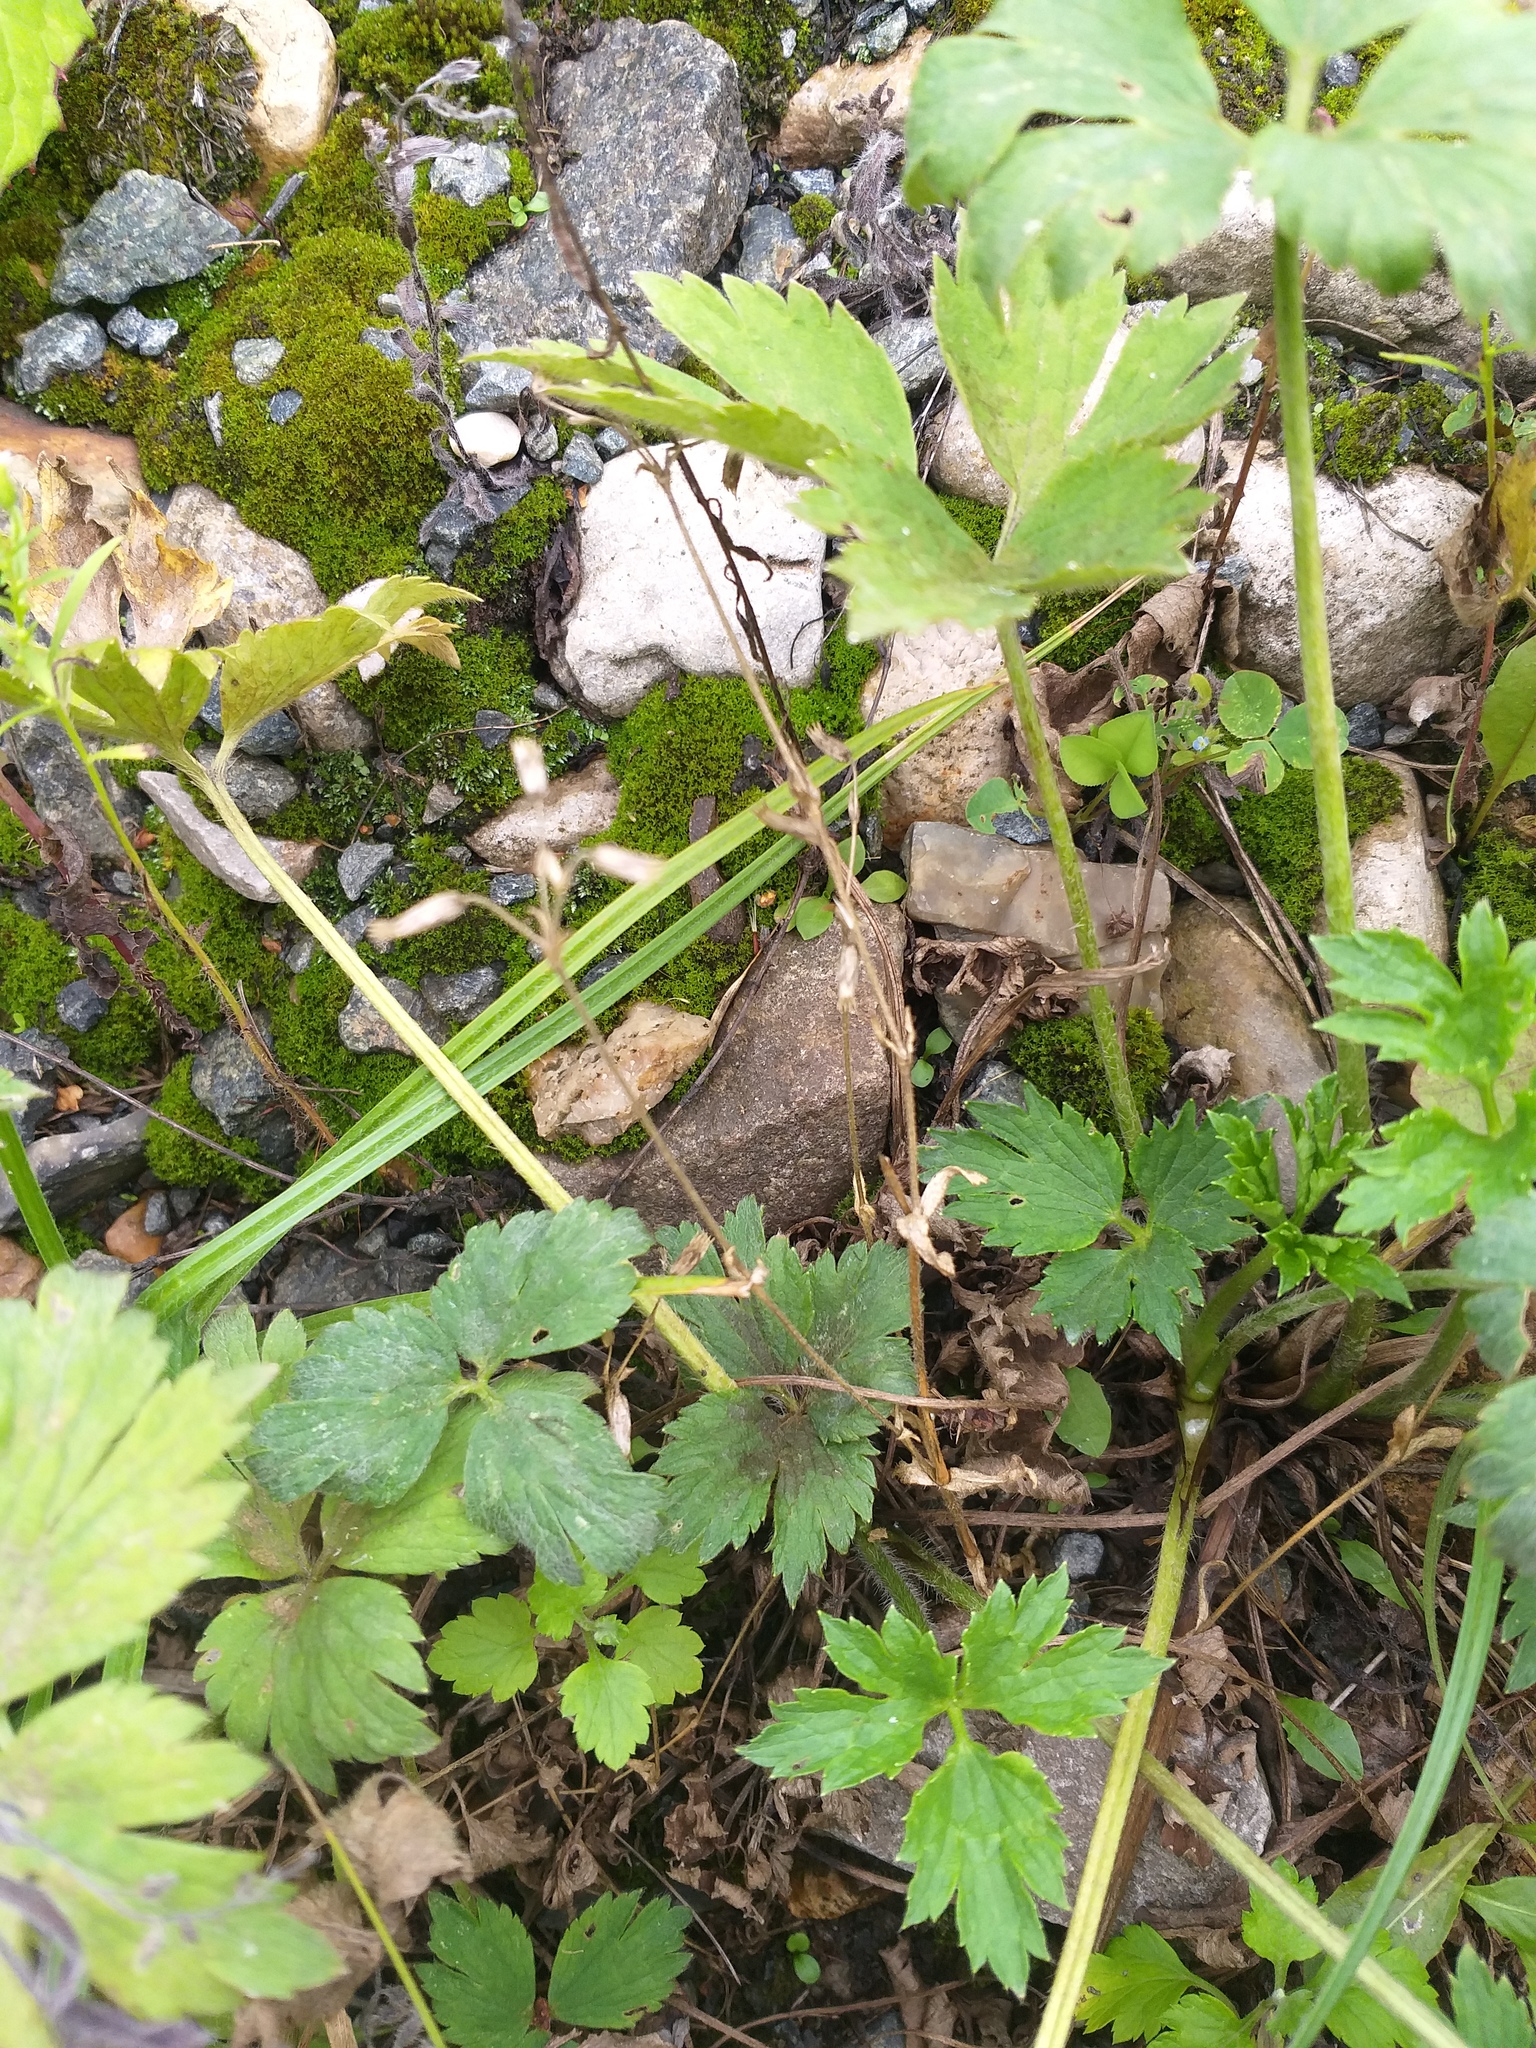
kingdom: Plantae
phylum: Tracheophyta
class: Magnoliopsida
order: Caryophyllales
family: Caryophyllaceae
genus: Cerastium
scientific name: Cerastium holosteoides
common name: Big chickweed
